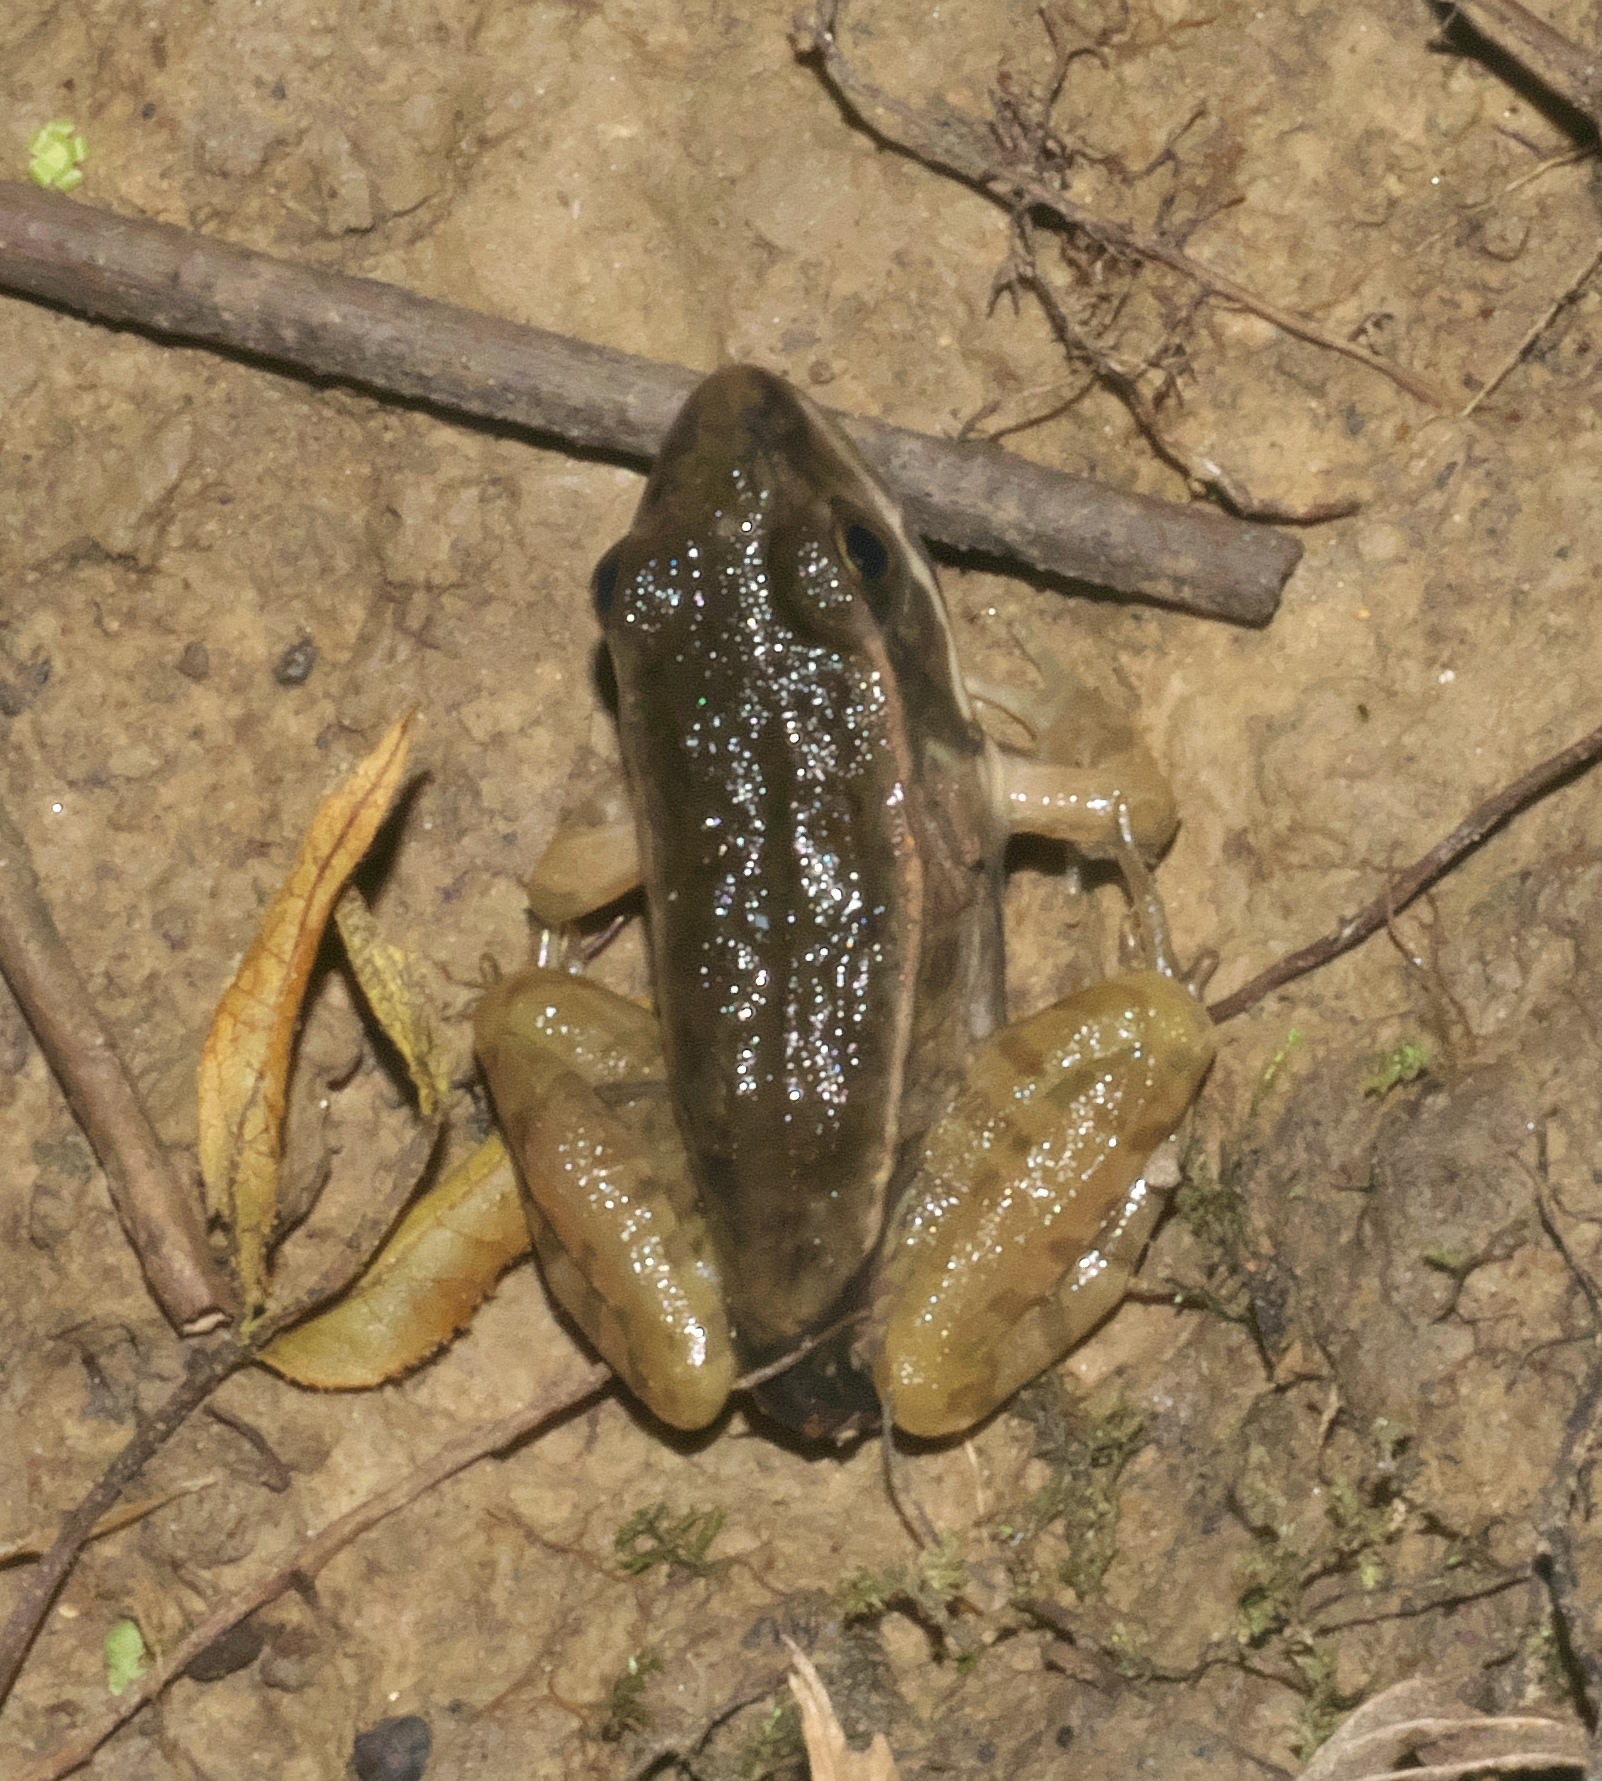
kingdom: Animalia
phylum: Chordata
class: Amphibia
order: Anura
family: Ranidae
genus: Lithobates
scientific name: Lithobates sphenocephalus
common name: Southern leopard frog
